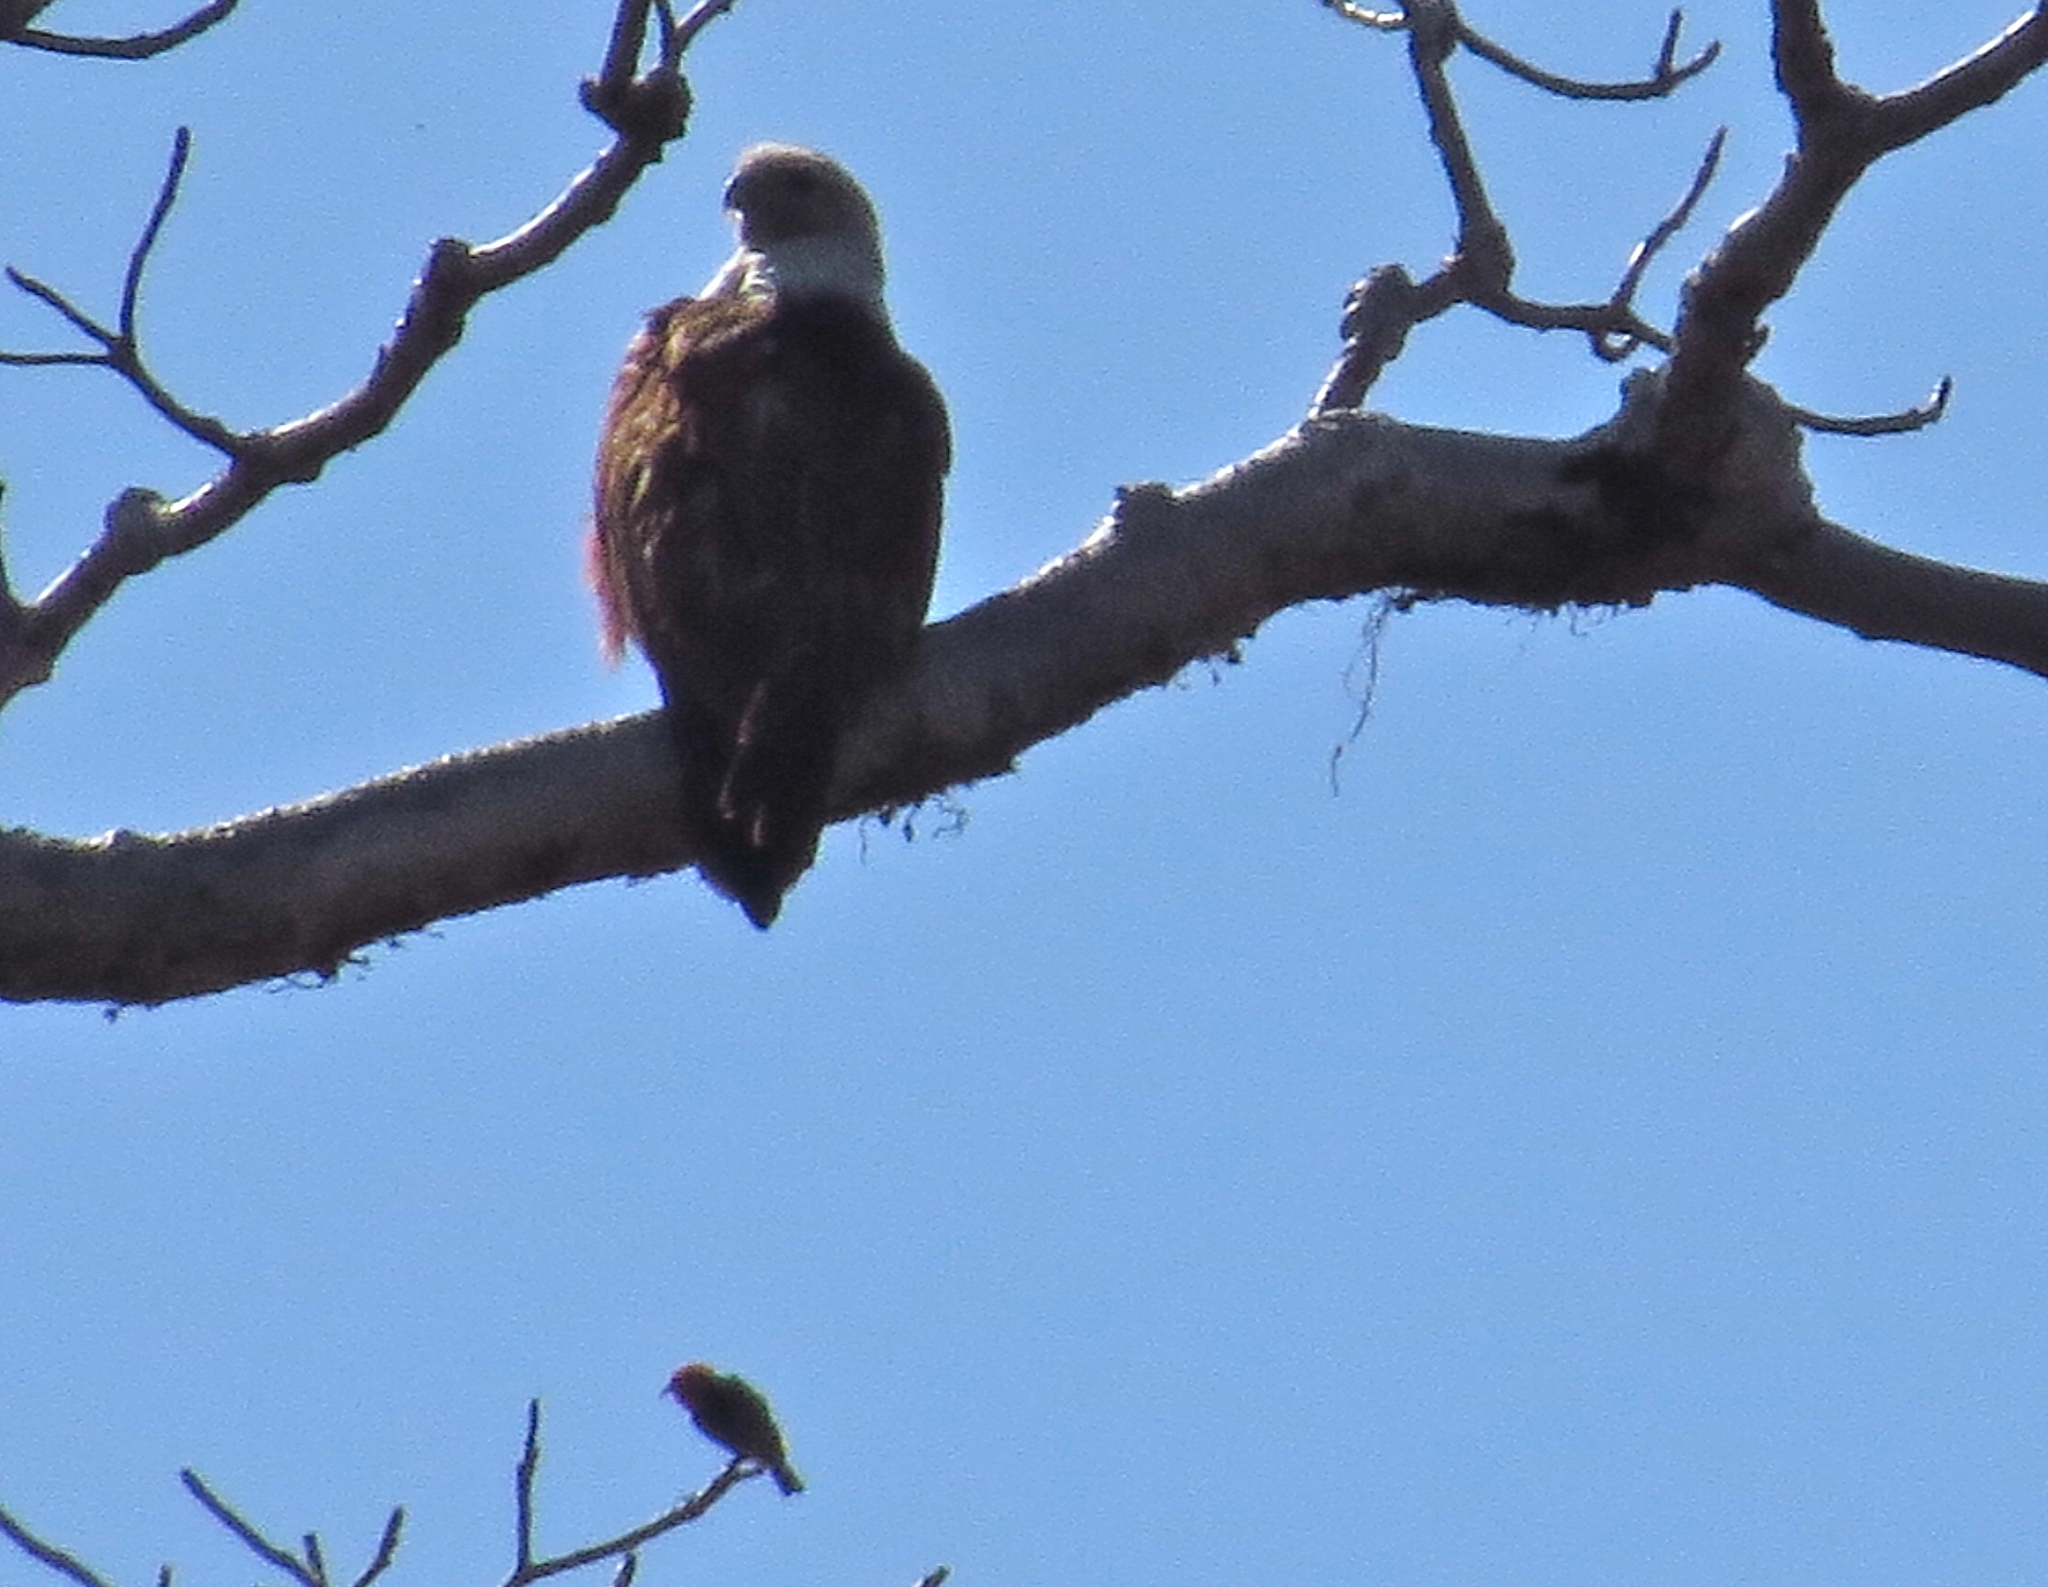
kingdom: Animalia
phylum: Chordata
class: Aves
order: Passeriformes
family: Meliphagidae
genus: Myzomela
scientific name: Myzomela dammermani
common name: Sumba myzomela
